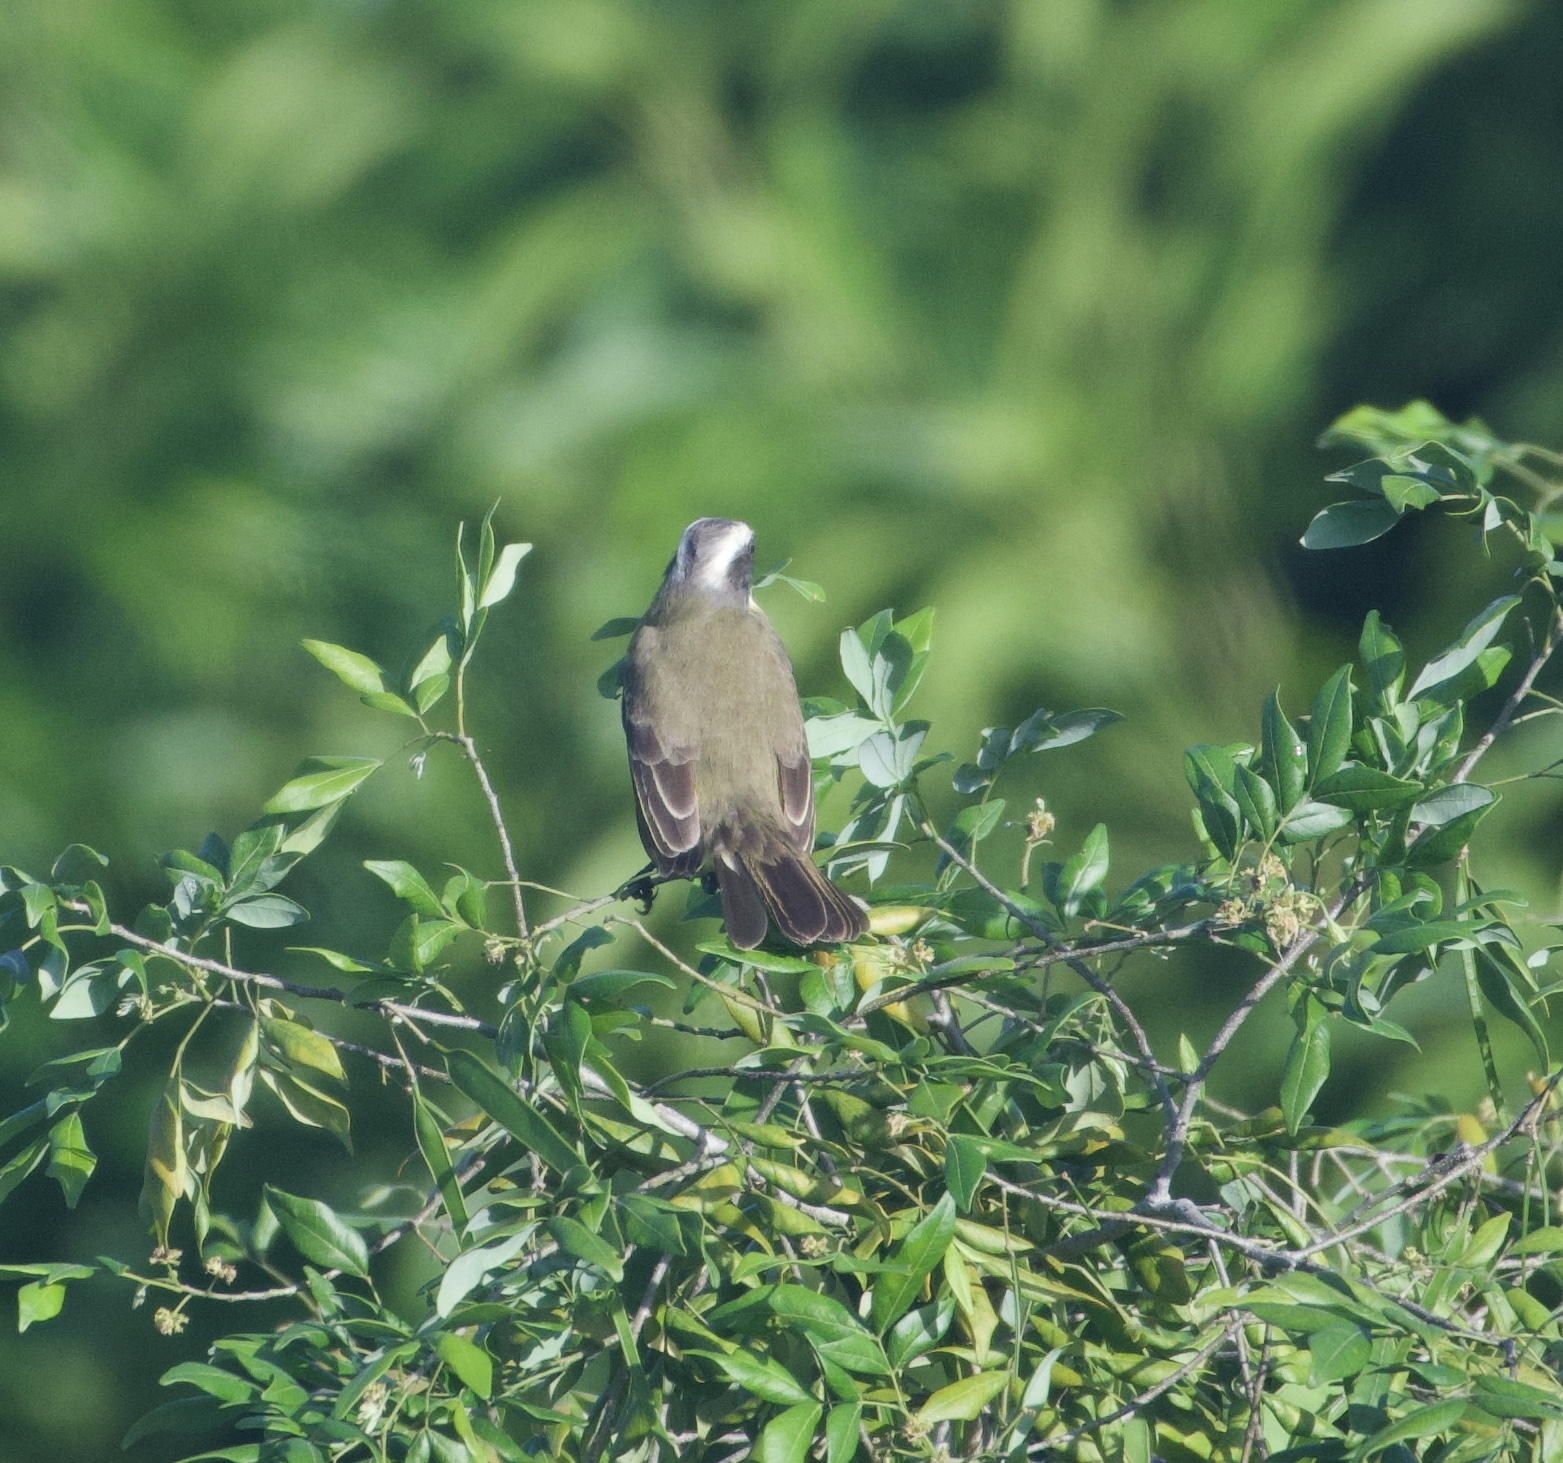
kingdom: Animalia
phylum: Chordata
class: Aves
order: Passeriformes
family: Tyrannidae
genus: Myiozetetes
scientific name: Myiozetetes similis
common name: Social flycatcher
